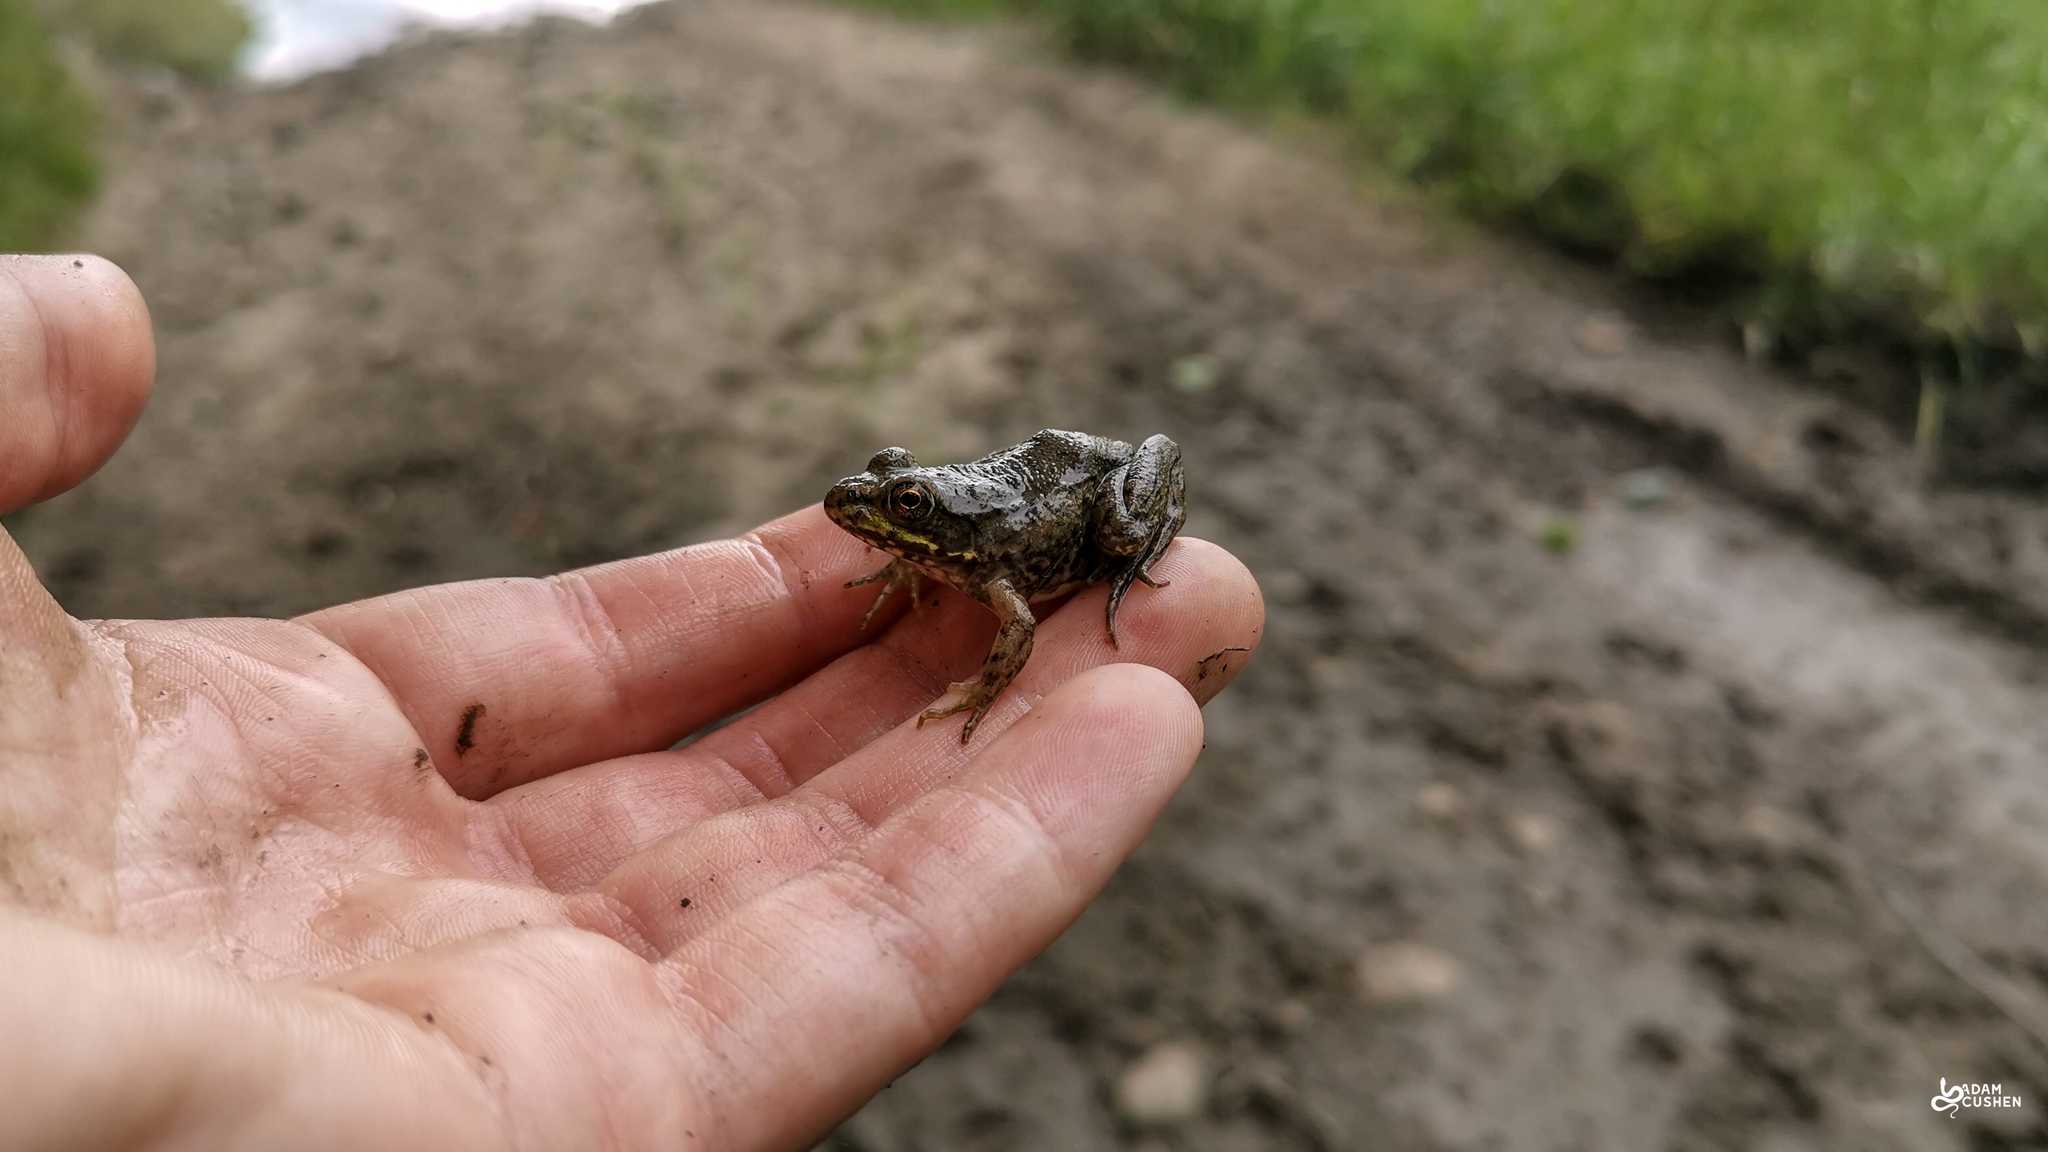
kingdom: Animalia
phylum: Chordata
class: Amphibia
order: Anura
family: Ranidae
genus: Lithobates
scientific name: Lithobates clamitans
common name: Green frog
